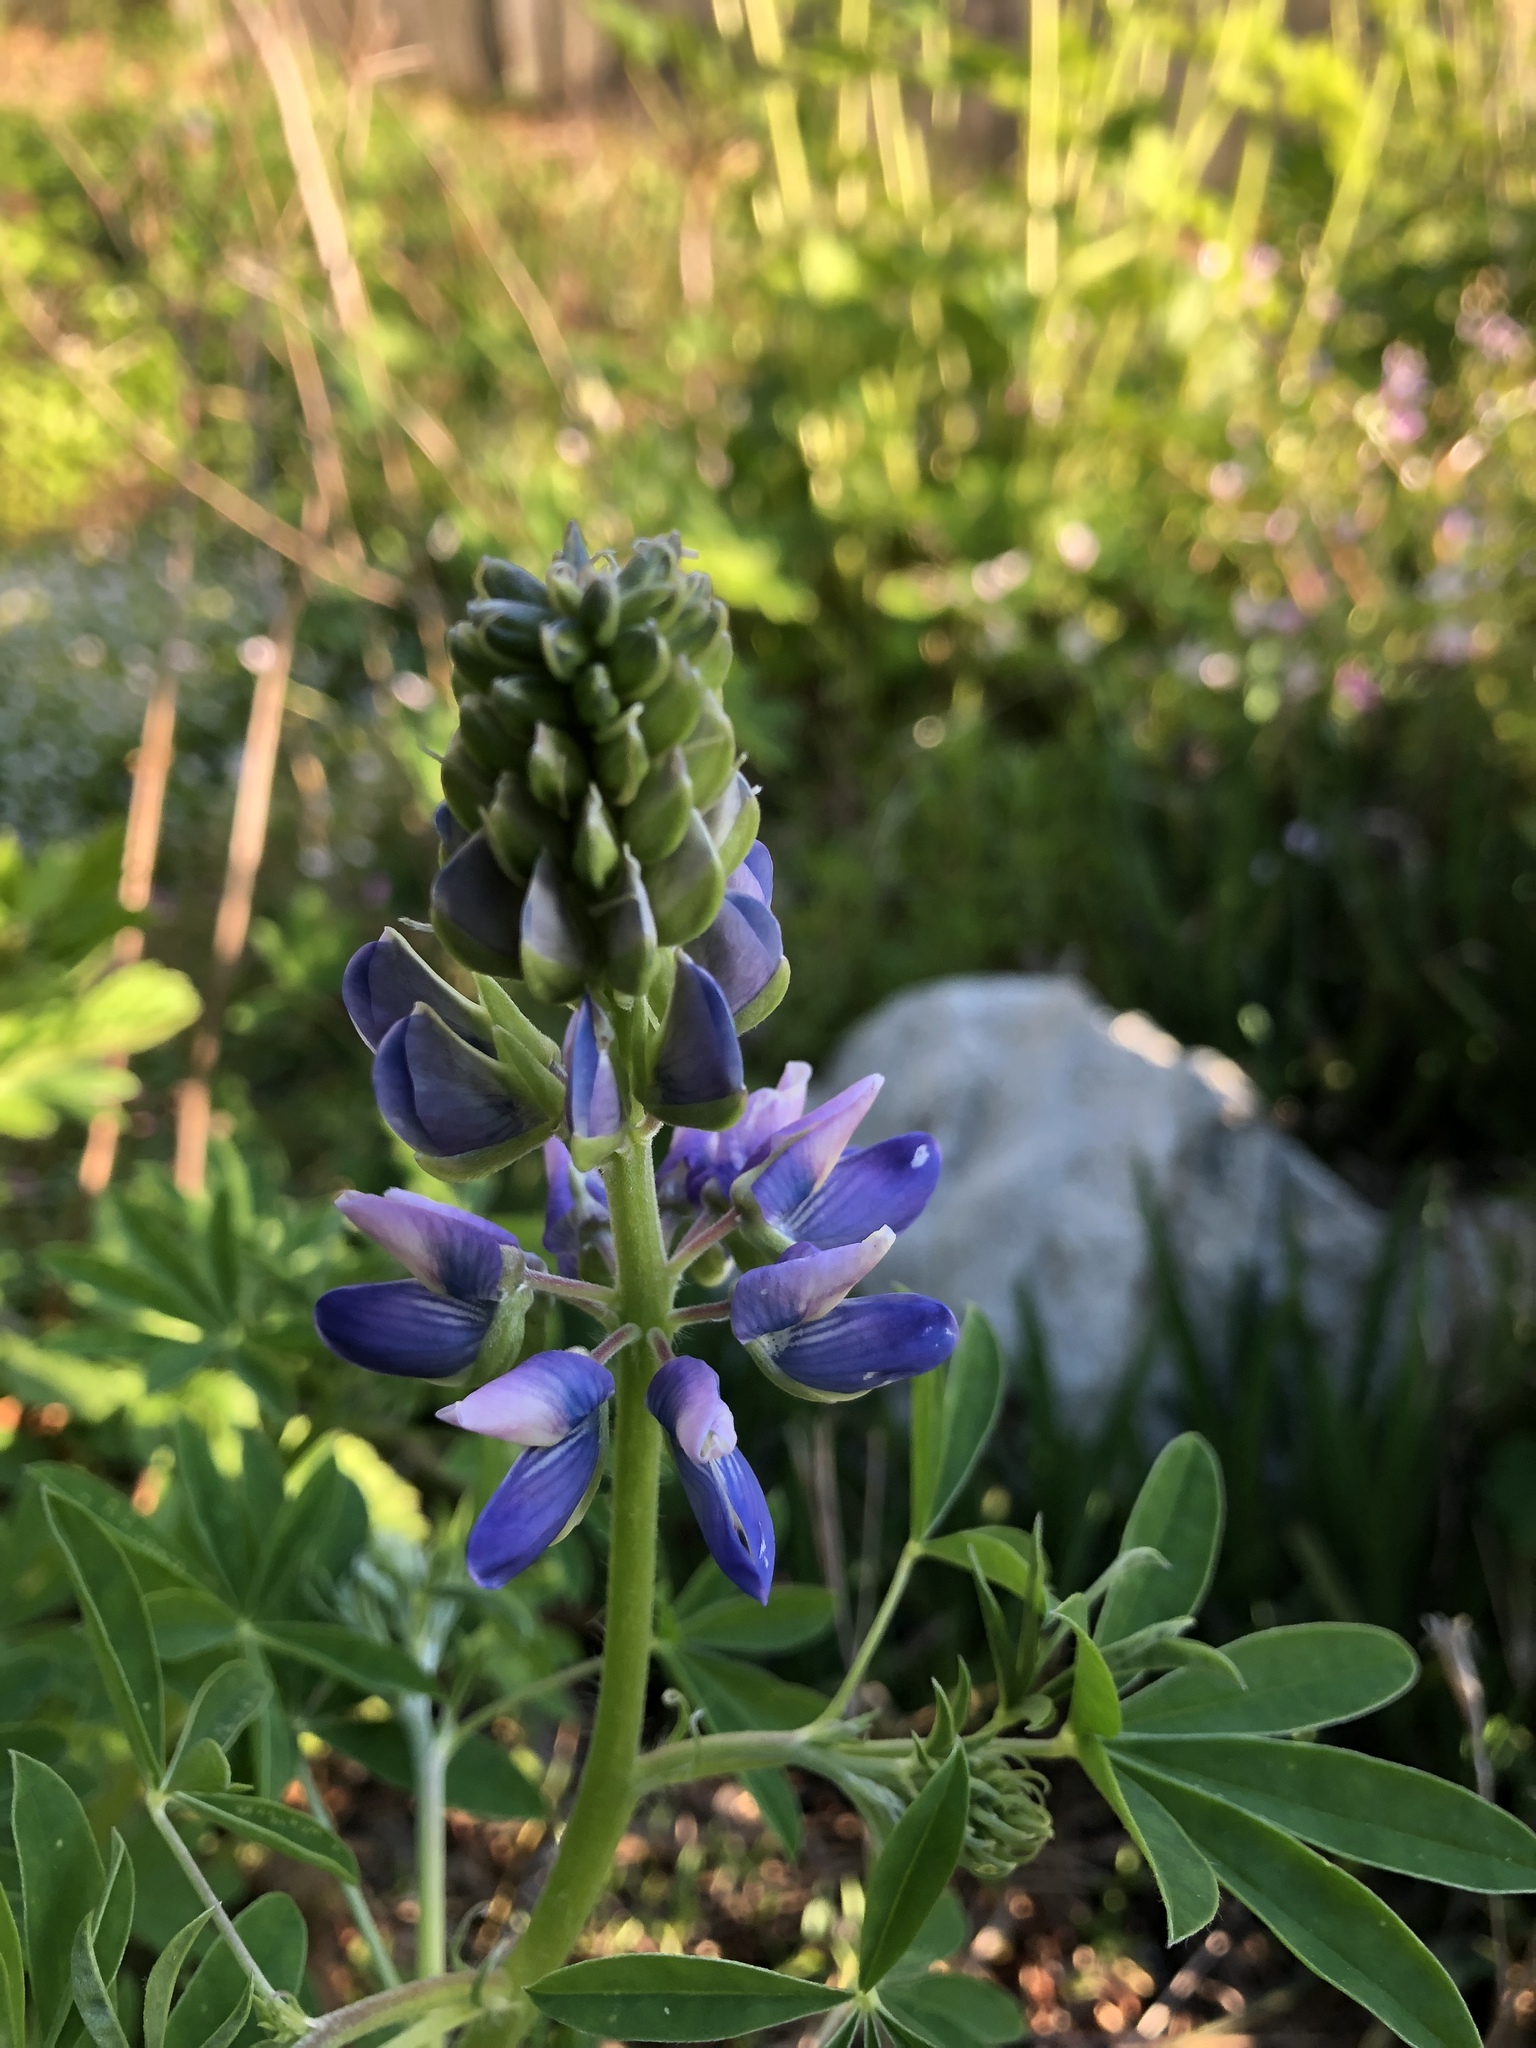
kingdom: Plantae
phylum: Tracheophyta
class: Magnoliopsida
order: Fabales
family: Fabaceae
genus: Lupinus
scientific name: Lupinus rivularis
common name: Riverbank lupine
